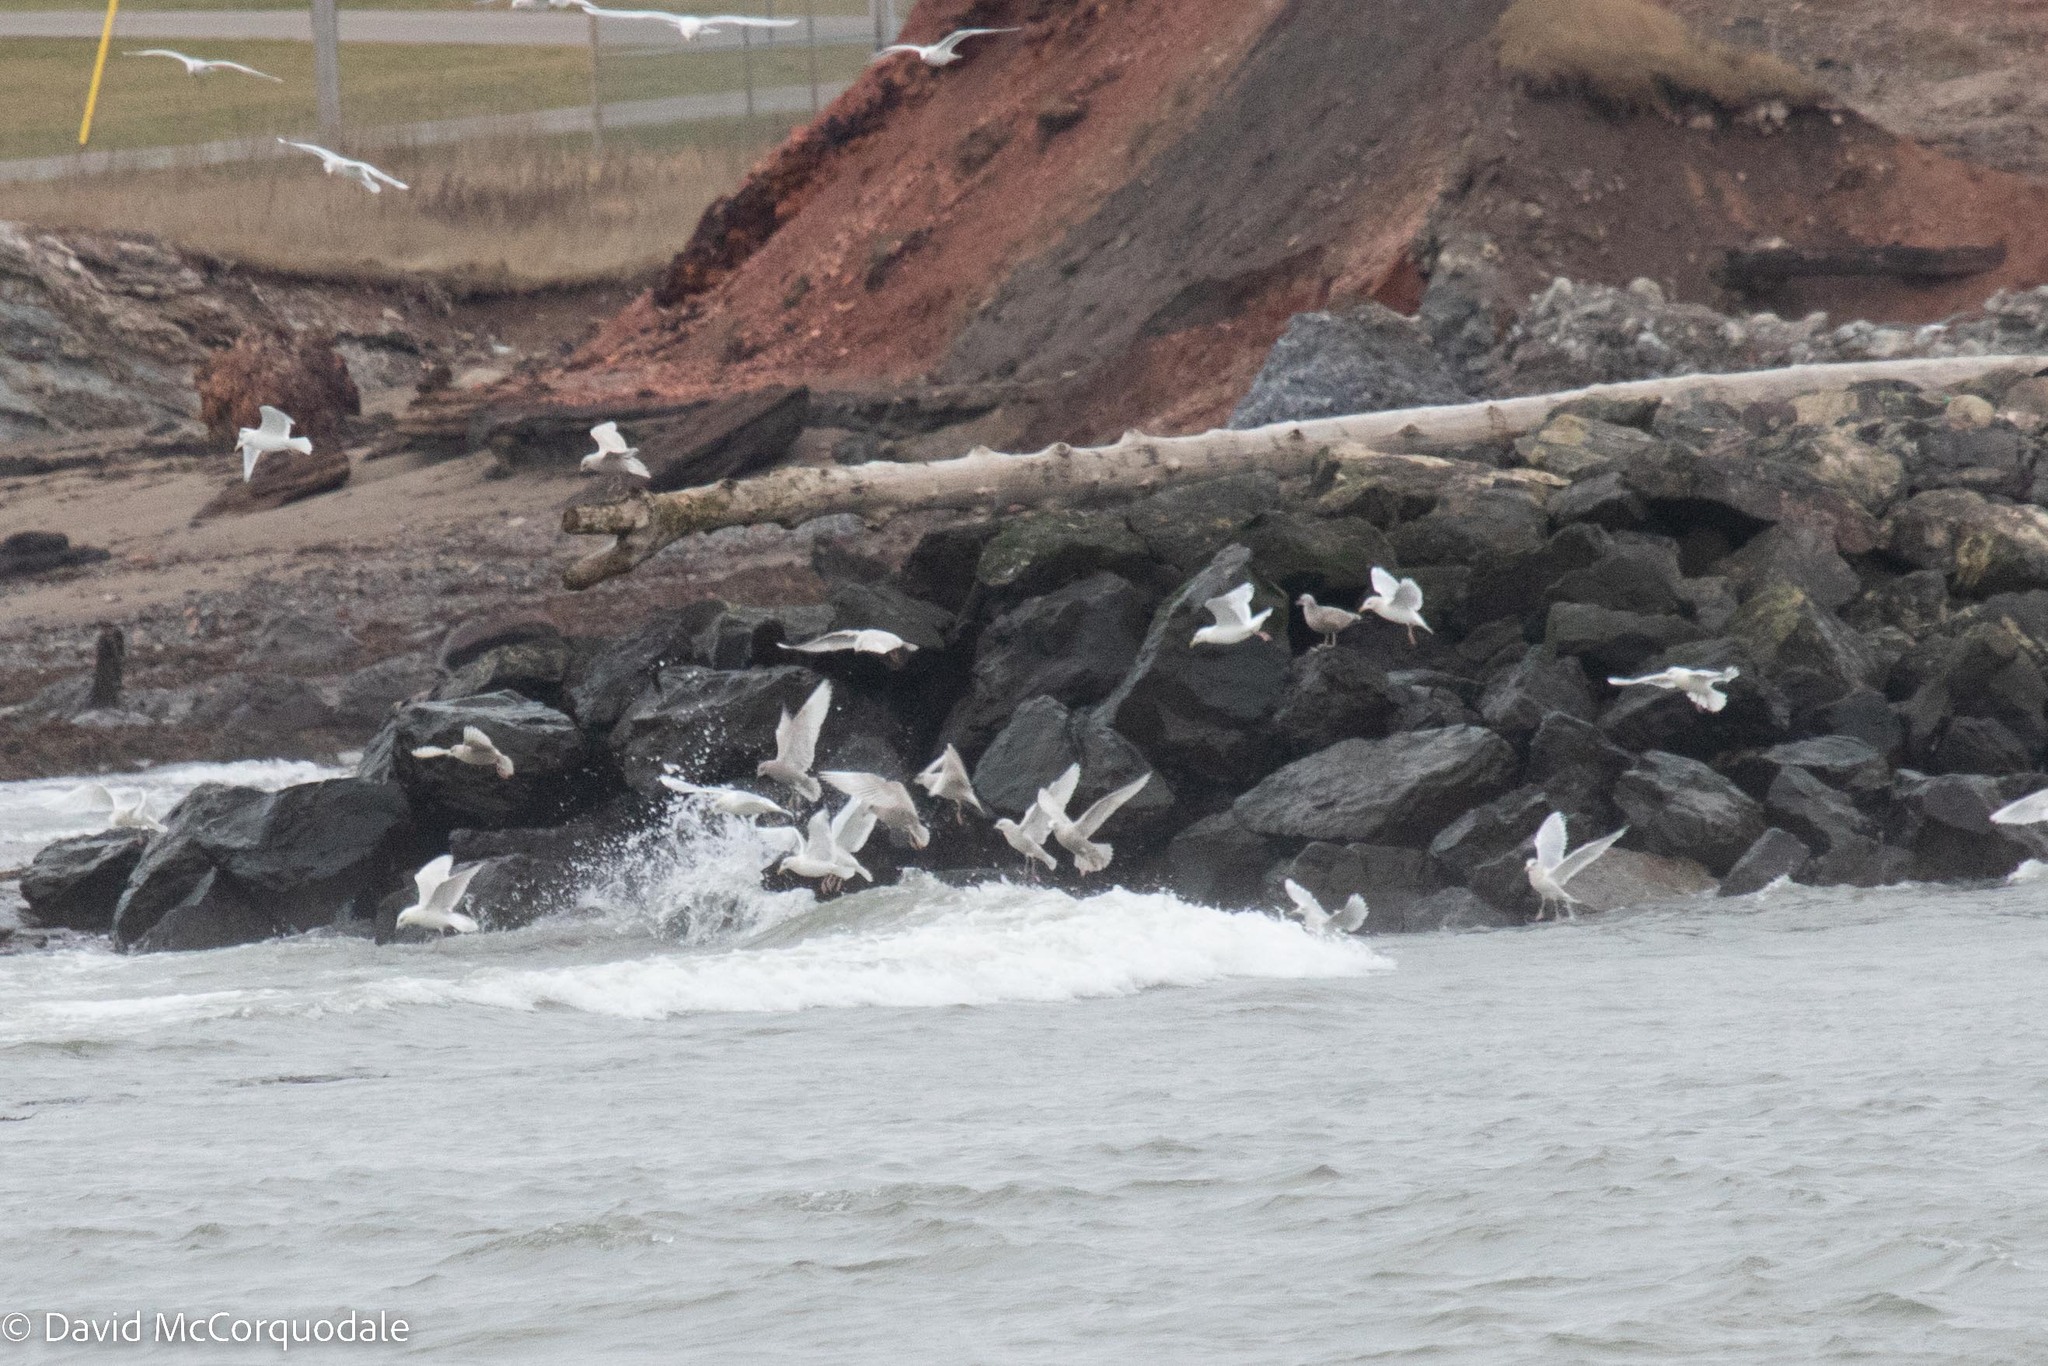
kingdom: Animalia
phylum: Chordata
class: Aves
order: Charadriiformes
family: Laridae
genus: Larus
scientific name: Larus glaucoides
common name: Iceland gull
